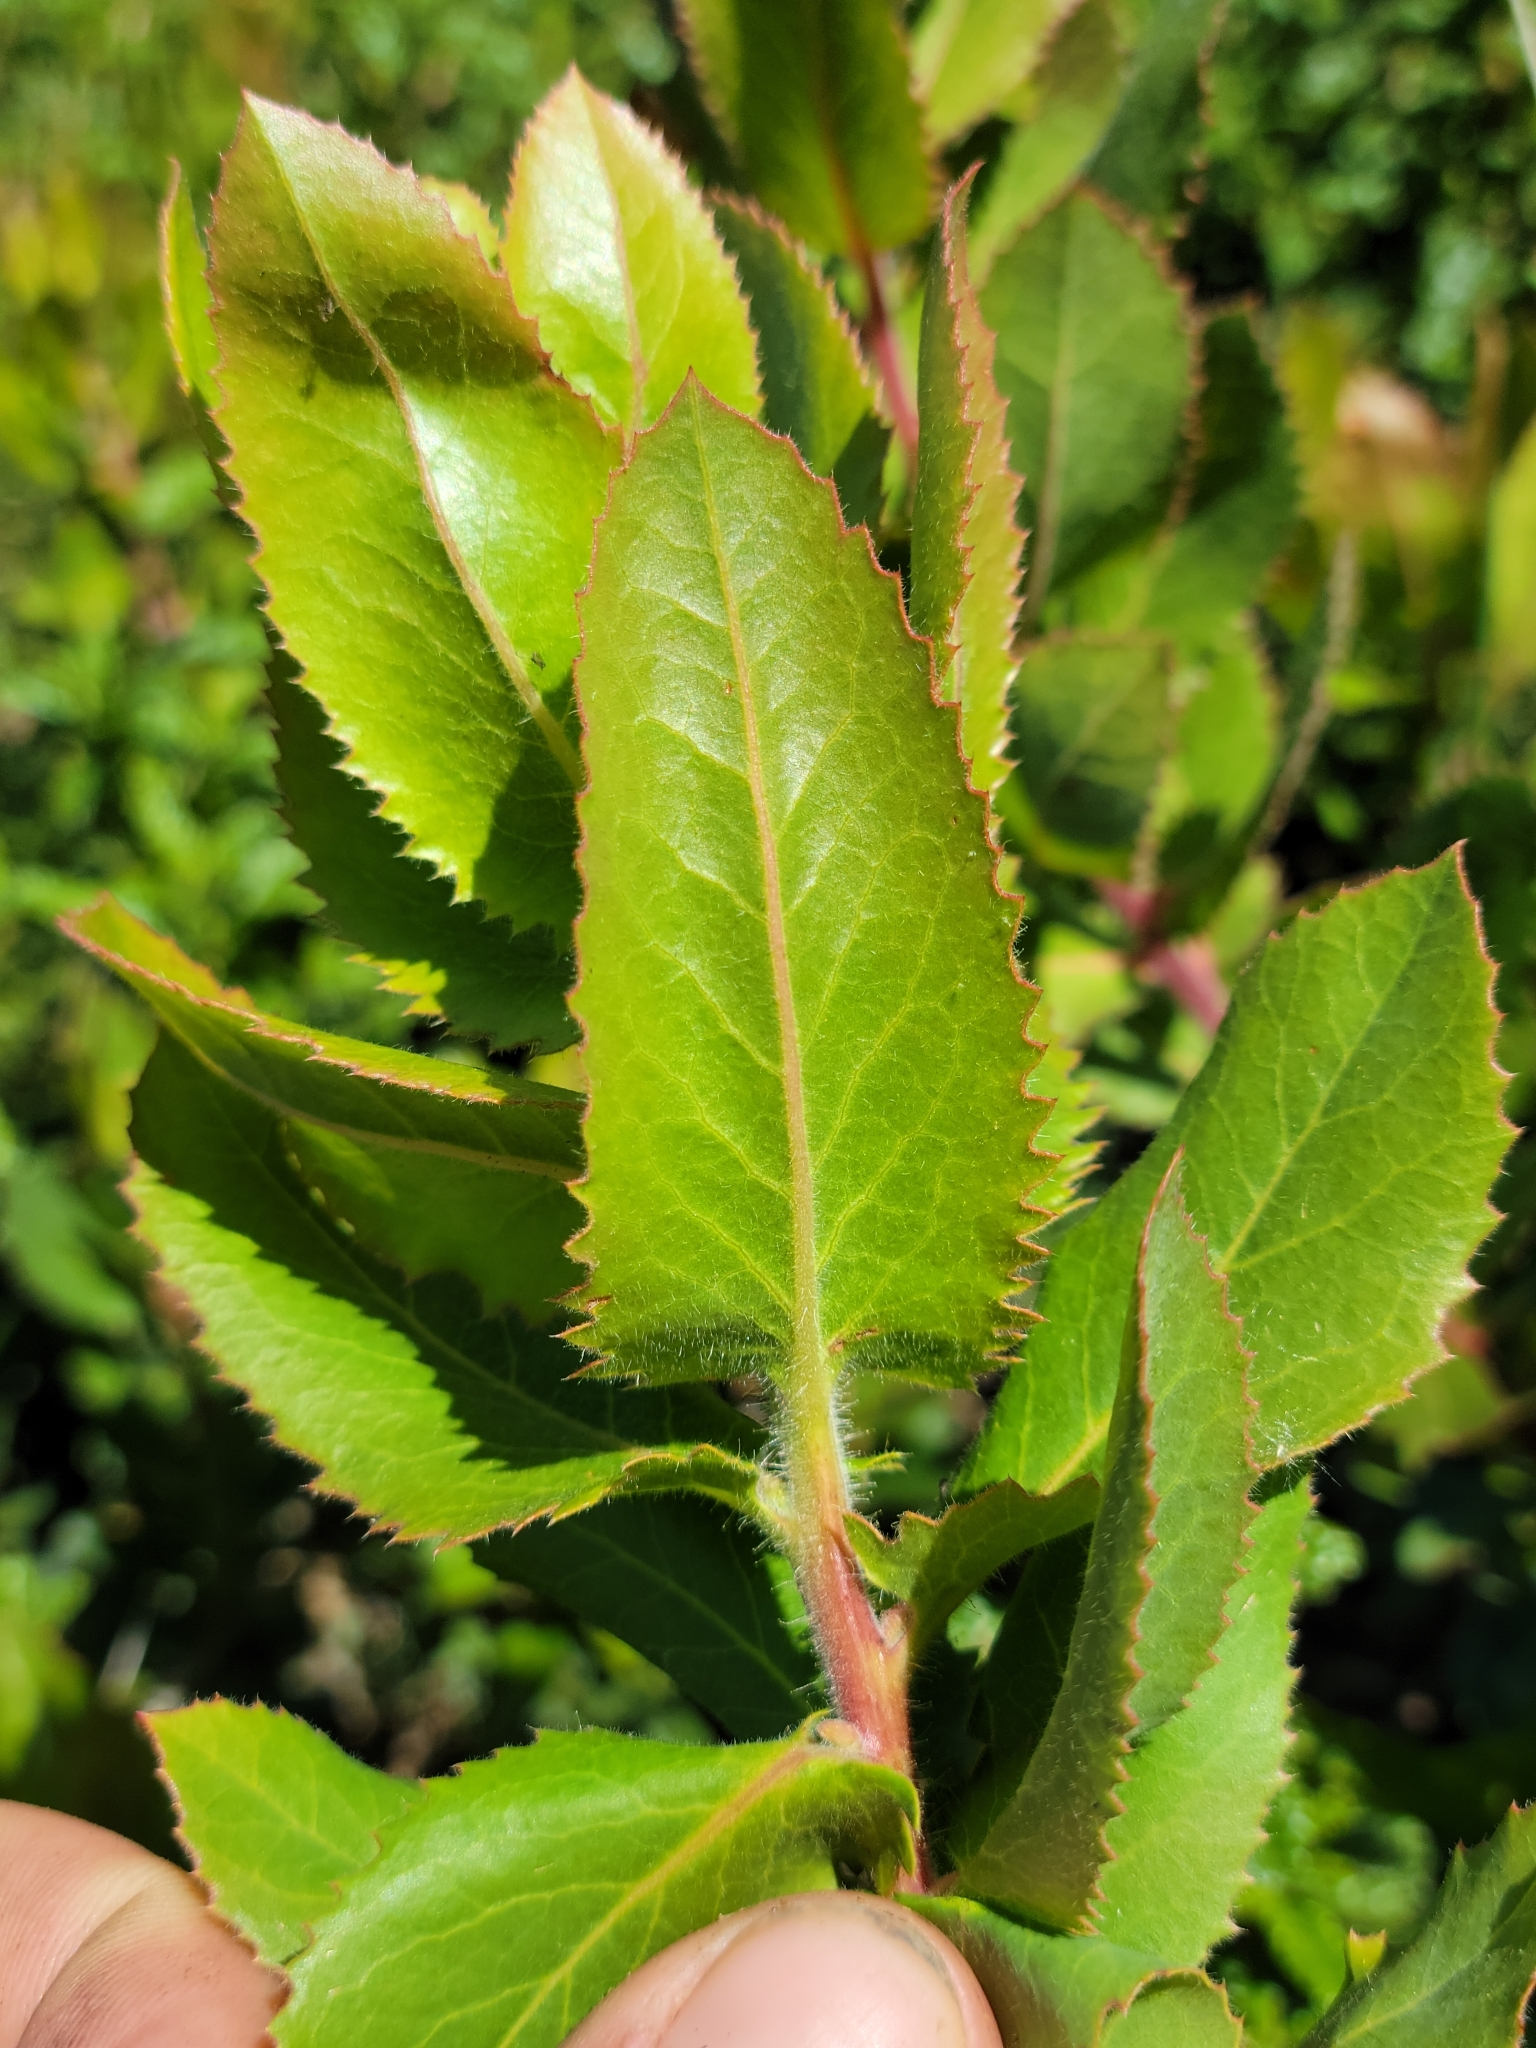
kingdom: Plantae
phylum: Tracheophyta
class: Magnoliopsida
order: Ericales
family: Ericaceae
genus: Arctostaphylos
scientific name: Arctostaphylos andersonii
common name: Santa cruz manzanita
